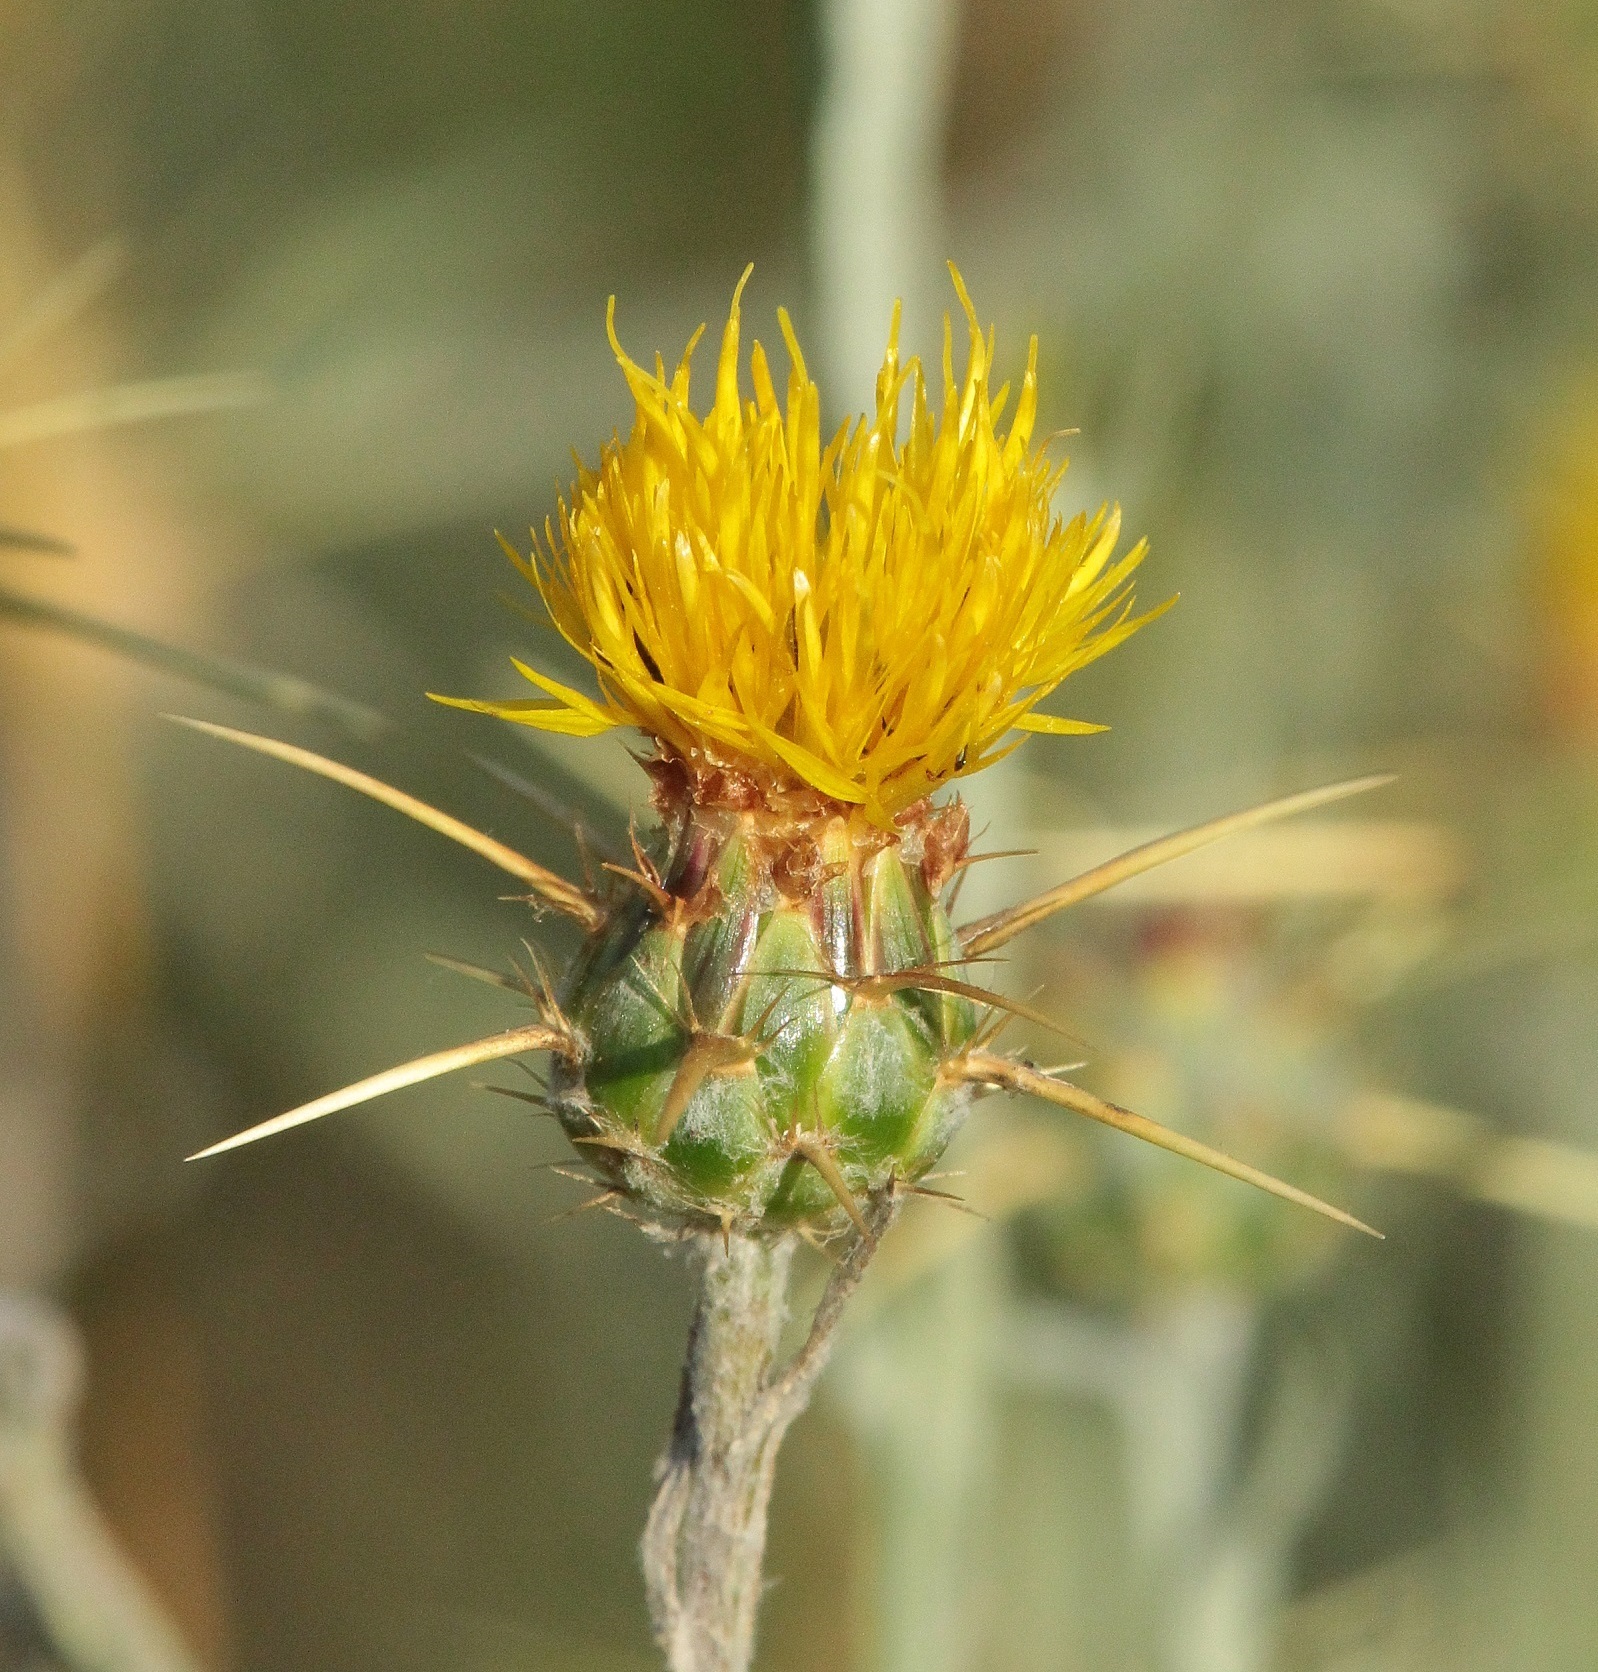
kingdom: Plantae
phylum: Tracheophyta
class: Magnoliopsida
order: Asterales
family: Asteraceae
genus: Centaurea
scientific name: Centaurea solstitialis
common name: Yellow star-thistle
